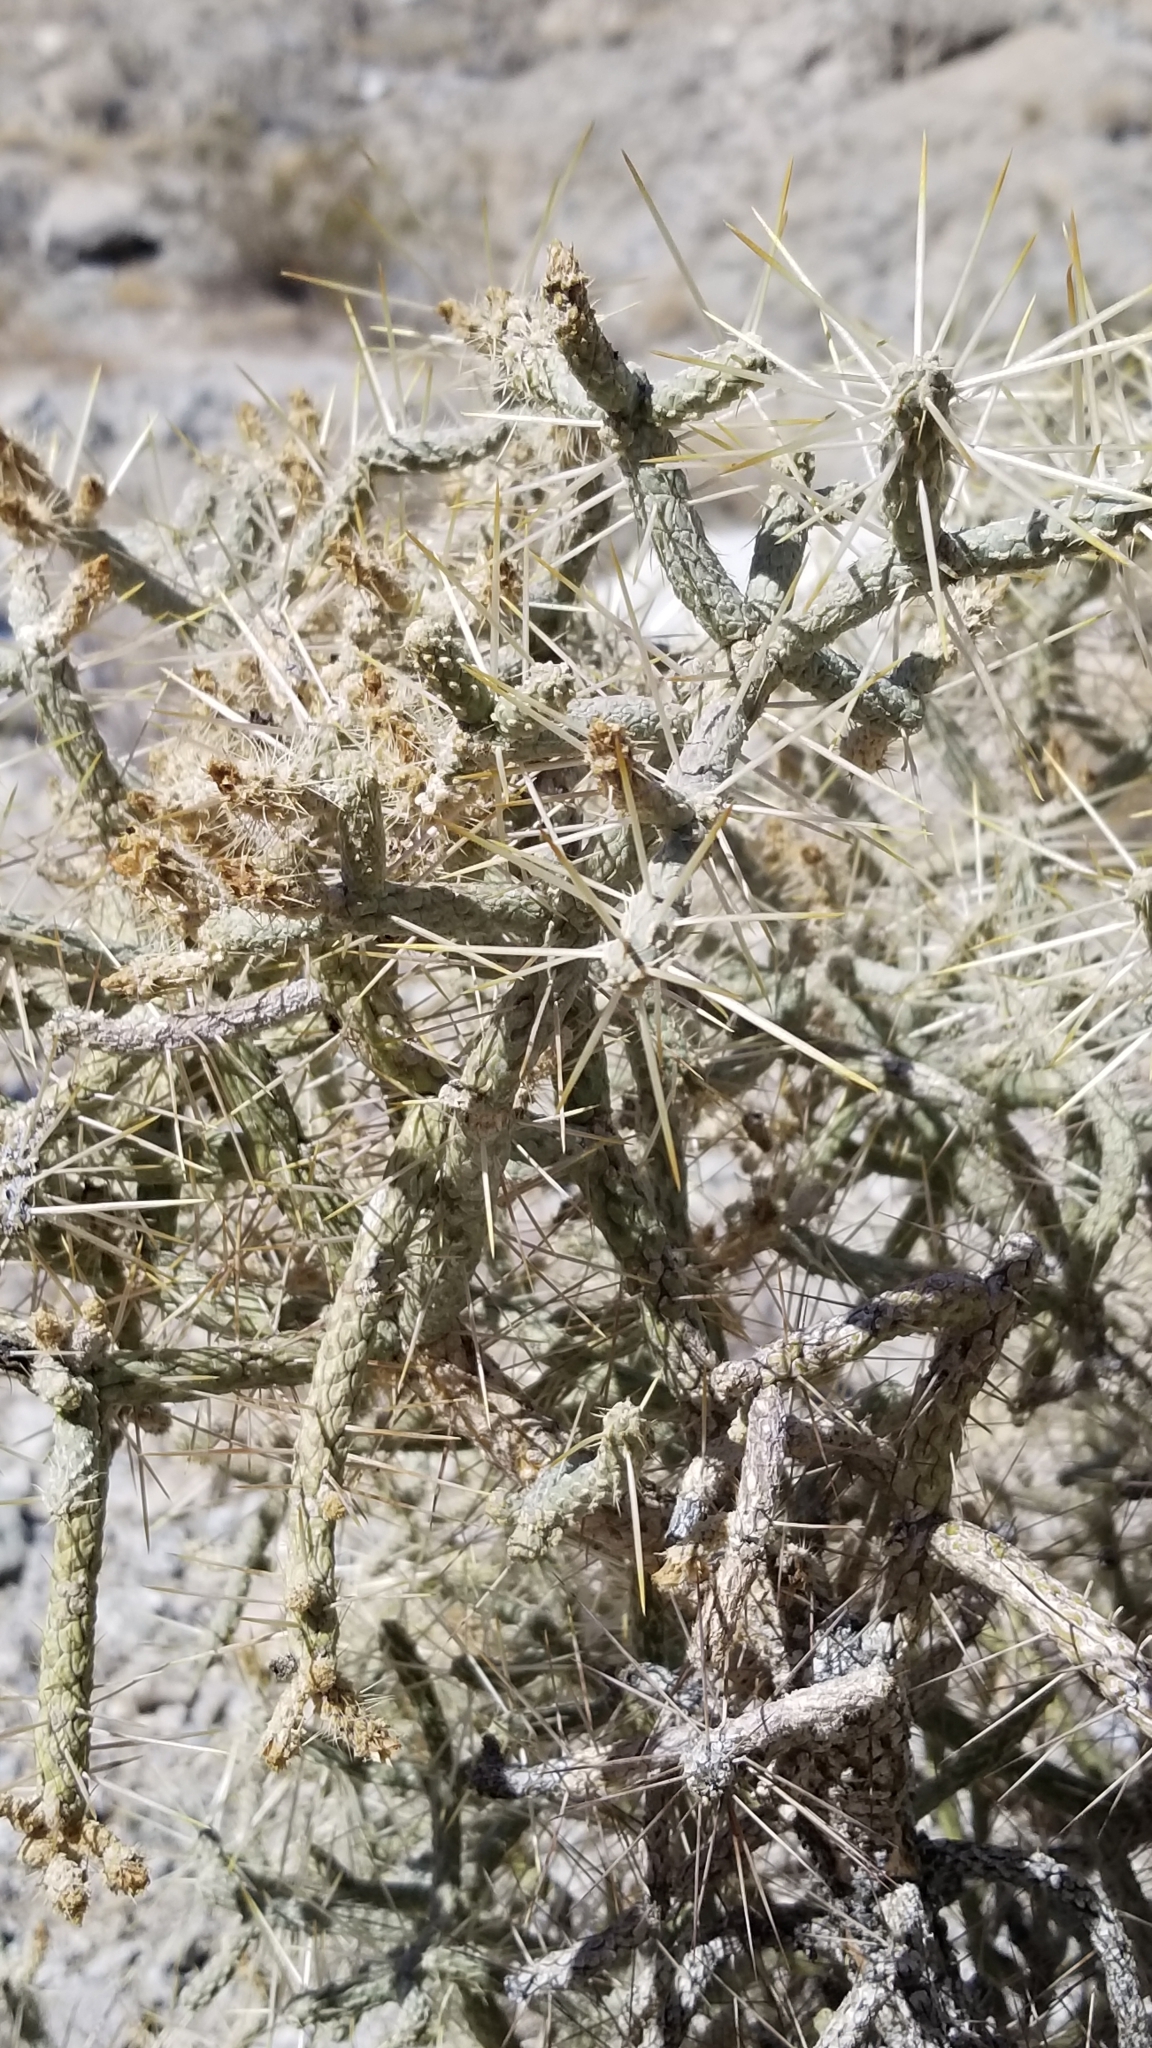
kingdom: Plantae
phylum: Tracheophyta
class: Magnoliopsida
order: Caryophyllales
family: Cactaceae
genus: Cylindropuntia
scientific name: Cylindropuntia ramosissima
